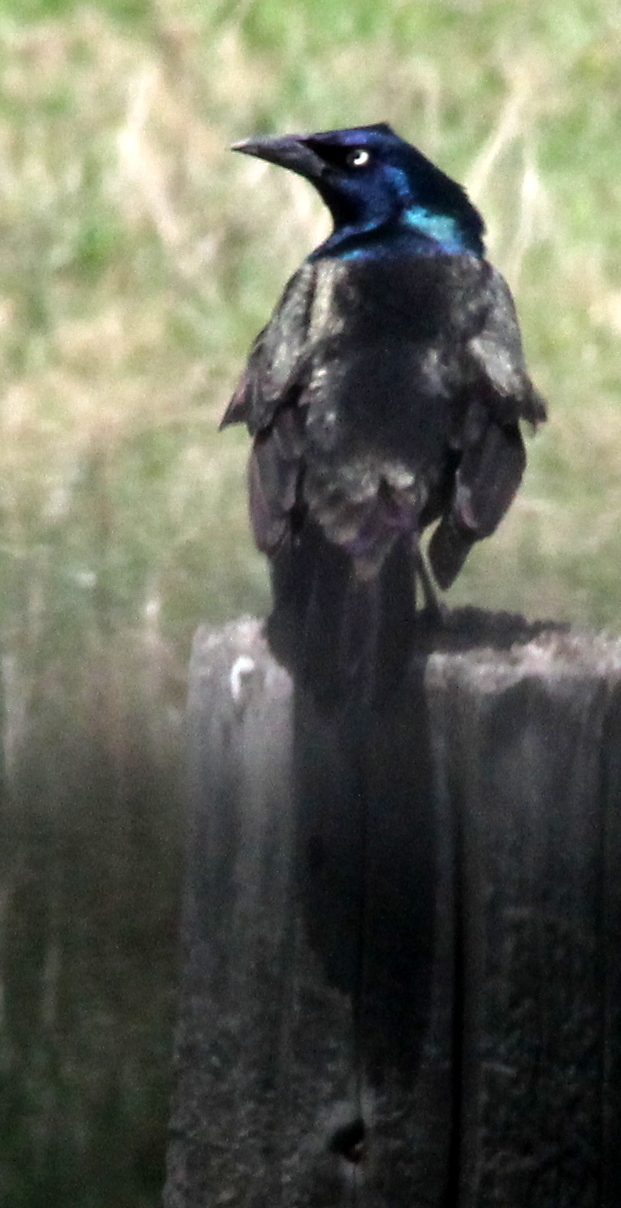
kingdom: Animalia
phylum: Chordata
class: Aves
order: Passeriformes
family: Icteridae
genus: Quiscalus
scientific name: Quiscalus quiscula
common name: Common grackle
